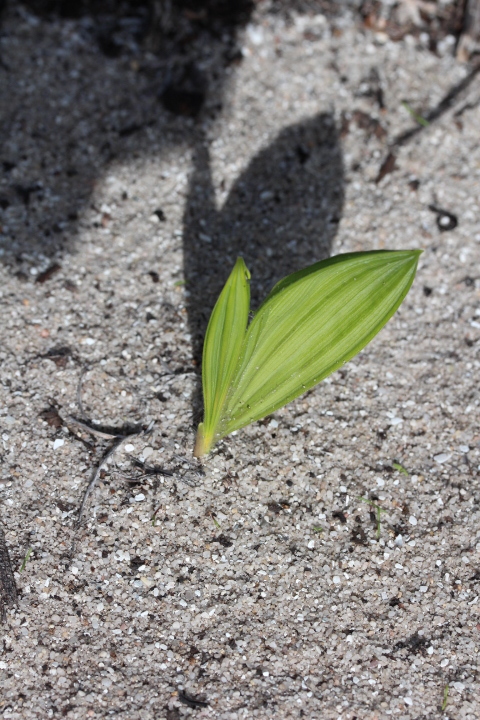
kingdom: Plantae
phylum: Tracheophyta
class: Liliopsida
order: Asparagales
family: Iridaceae
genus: Babiana
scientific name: Babiana nana
